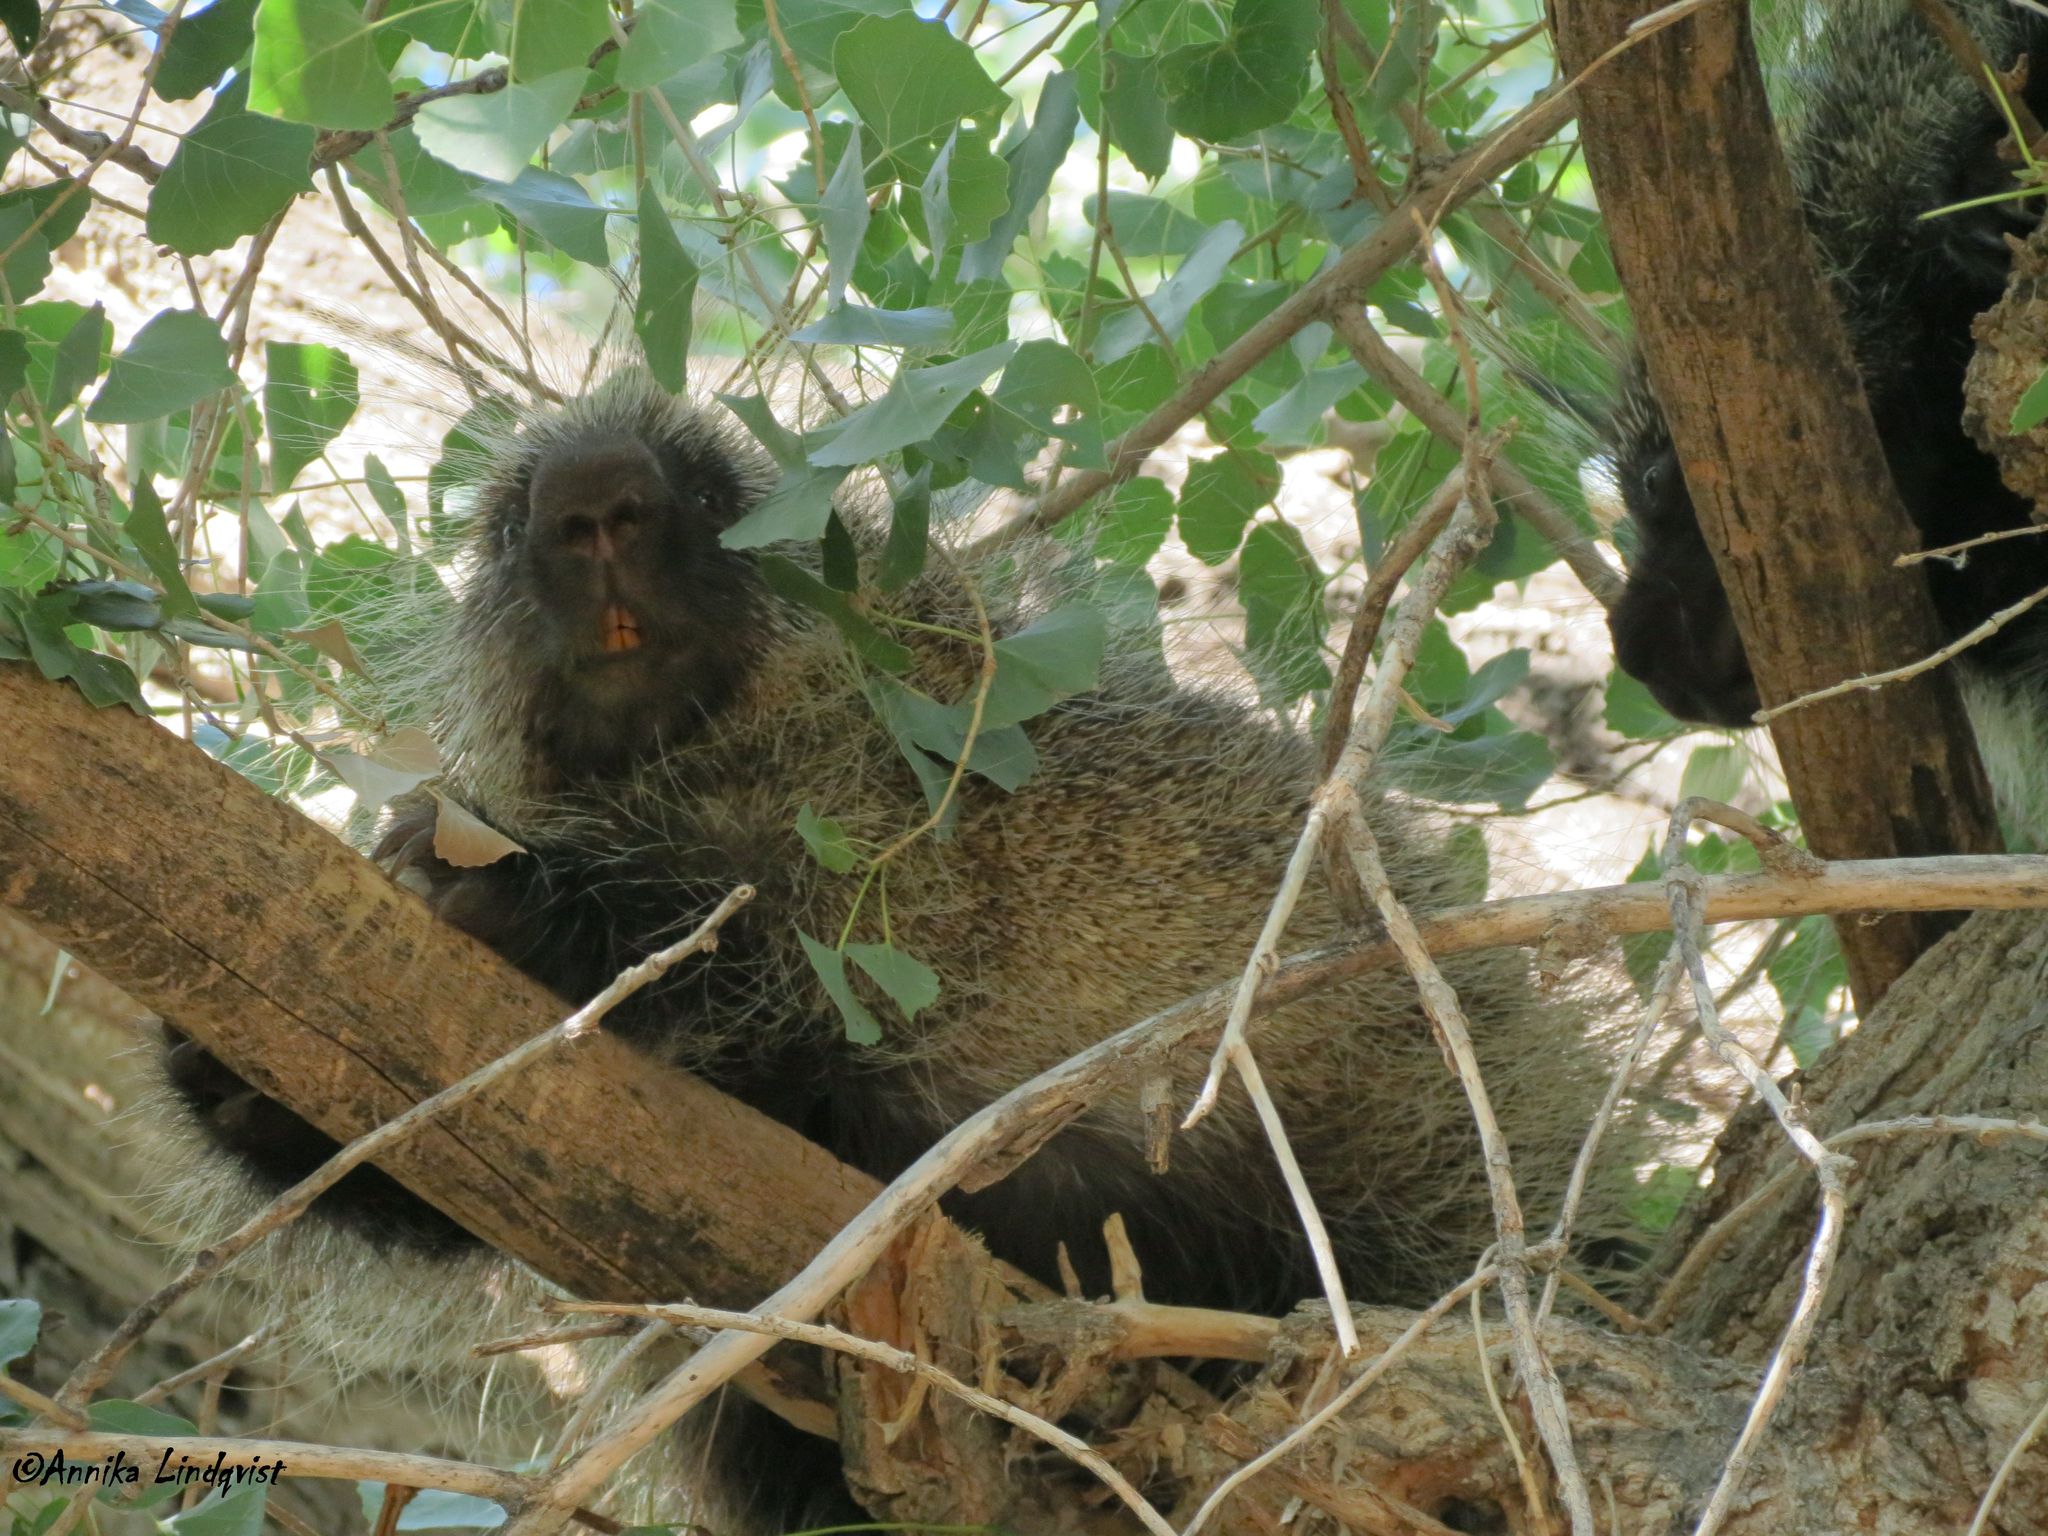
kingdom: Animalia
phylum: Chordata
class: Mammalia
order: Rodentia
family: Erethizontidae
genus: Erethizon
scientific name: Erethizon dorsatus
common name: North american porcupine
